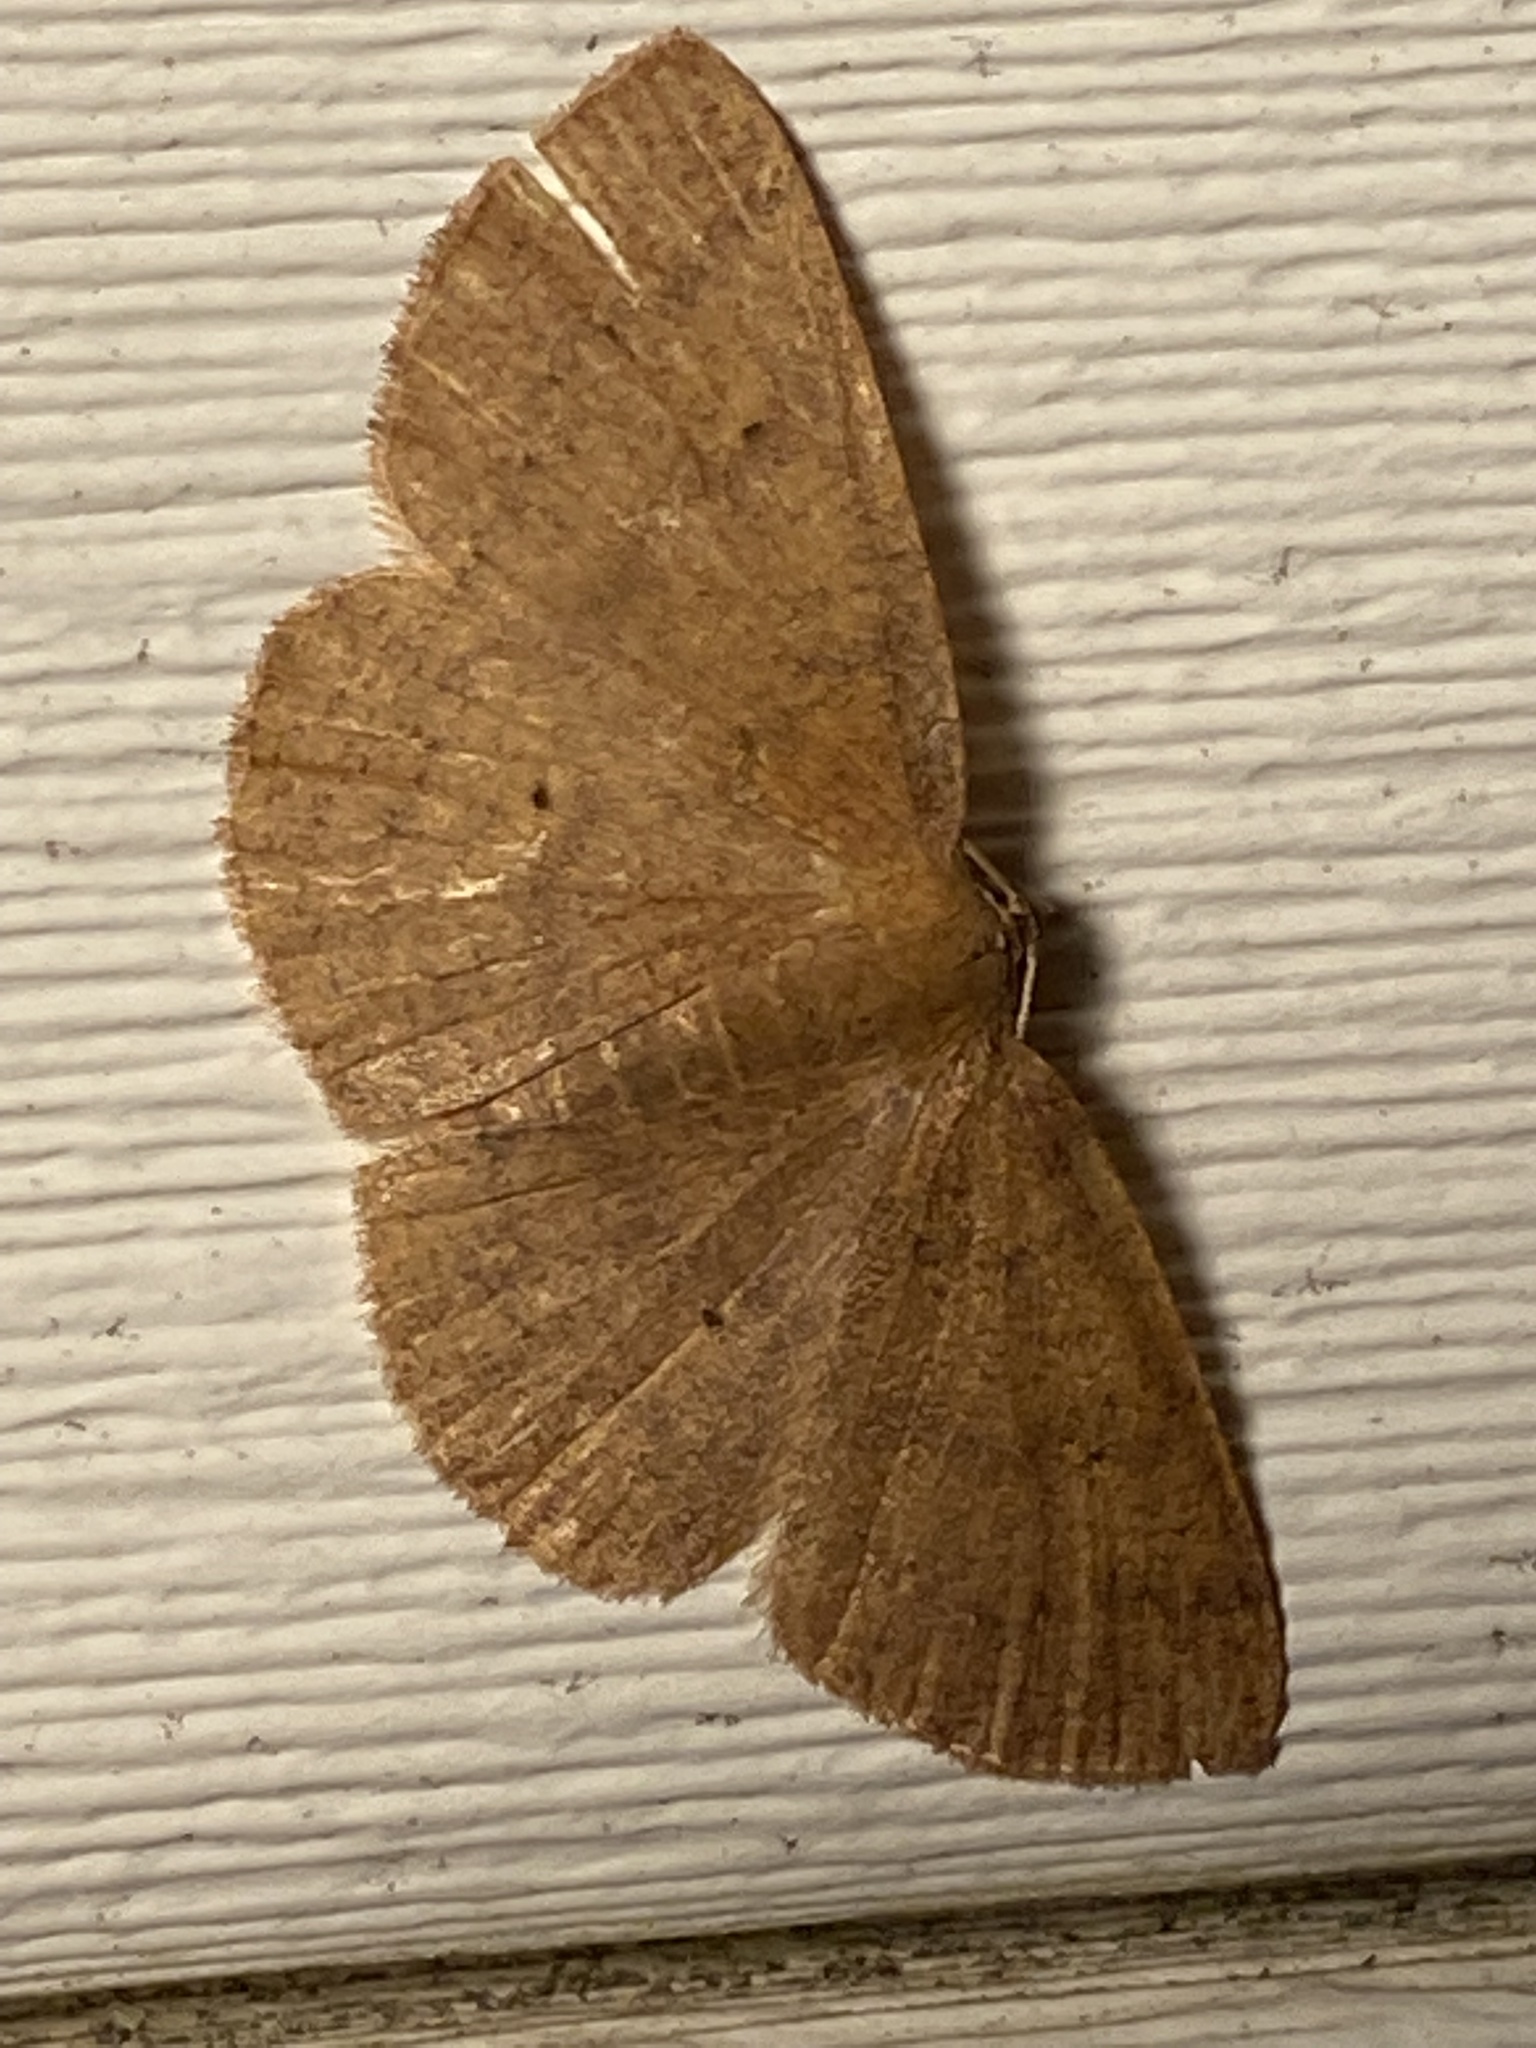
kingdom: Animalia
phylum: Arthropoda
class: Insecta
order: Lepidoptera
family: Geometridae
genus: Ilexia
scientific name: Ilexia intractata
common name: Black-dotted ruddy moth
